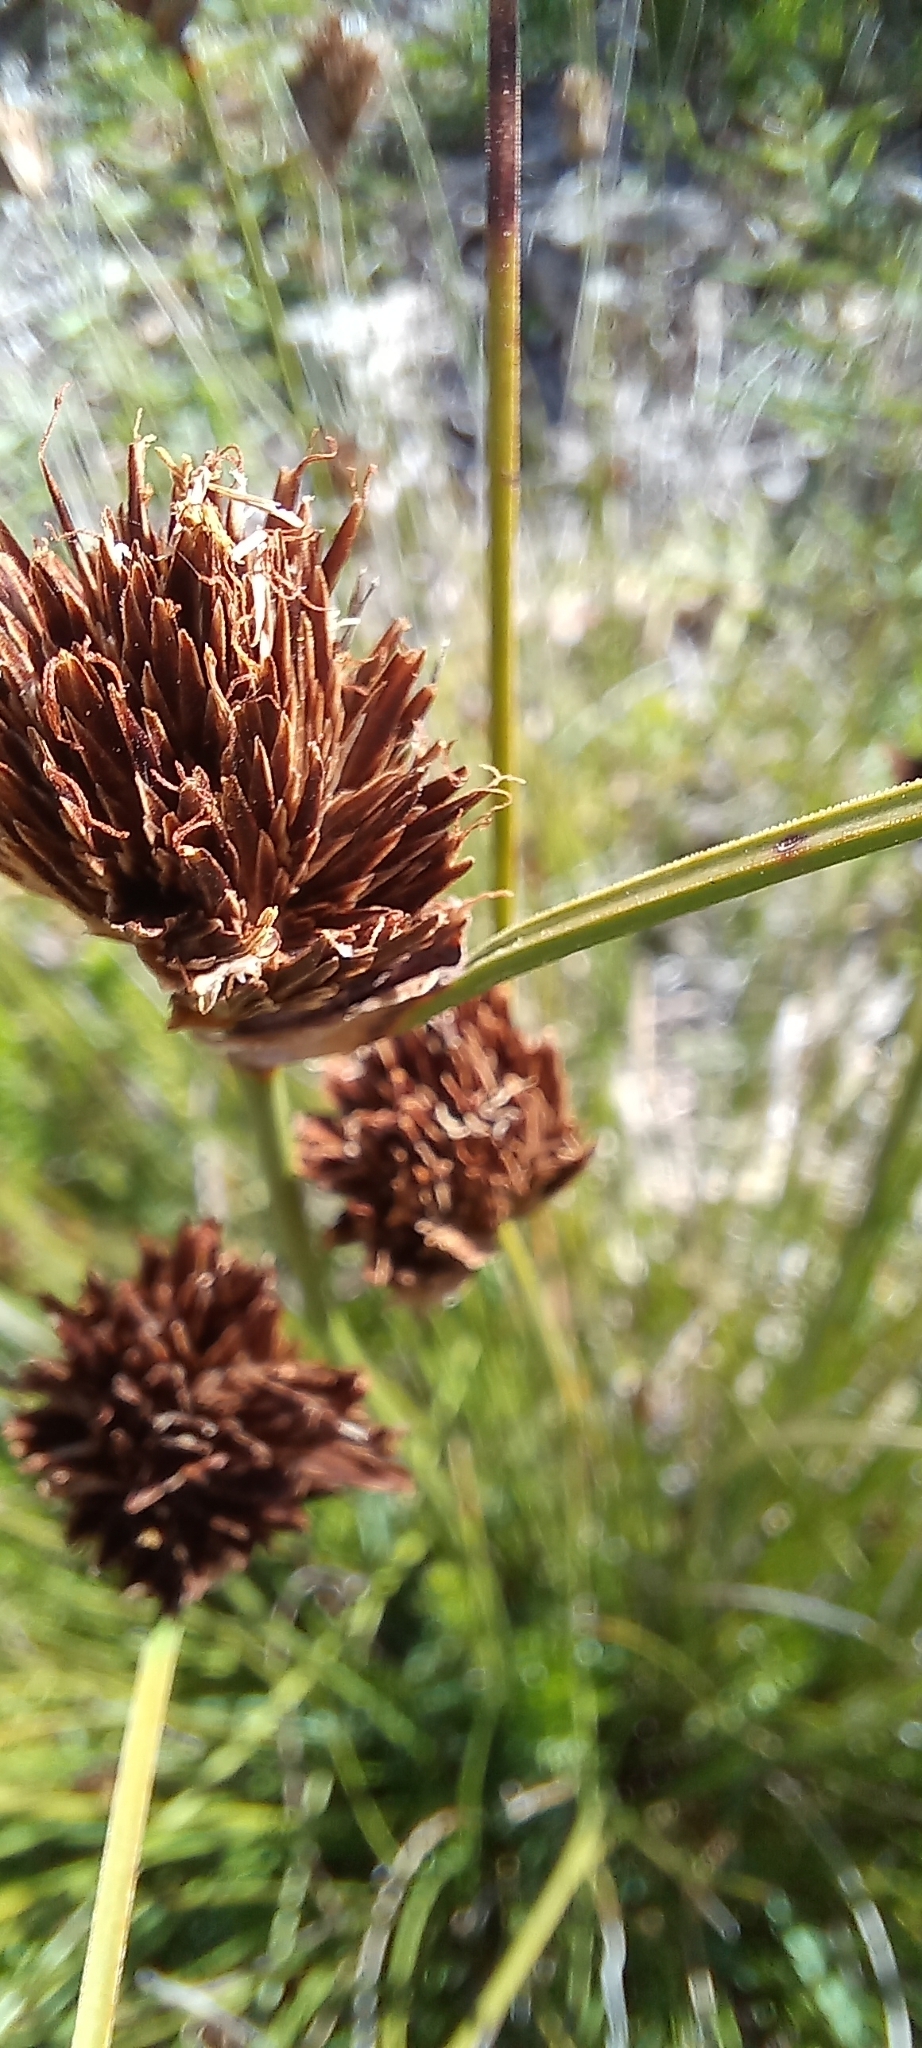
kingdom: Plantae
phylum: Tracheophyta
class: Liliopsida
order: Poales
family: Cyperaceae
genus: Ficinia
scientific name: Ficinia lateralis
